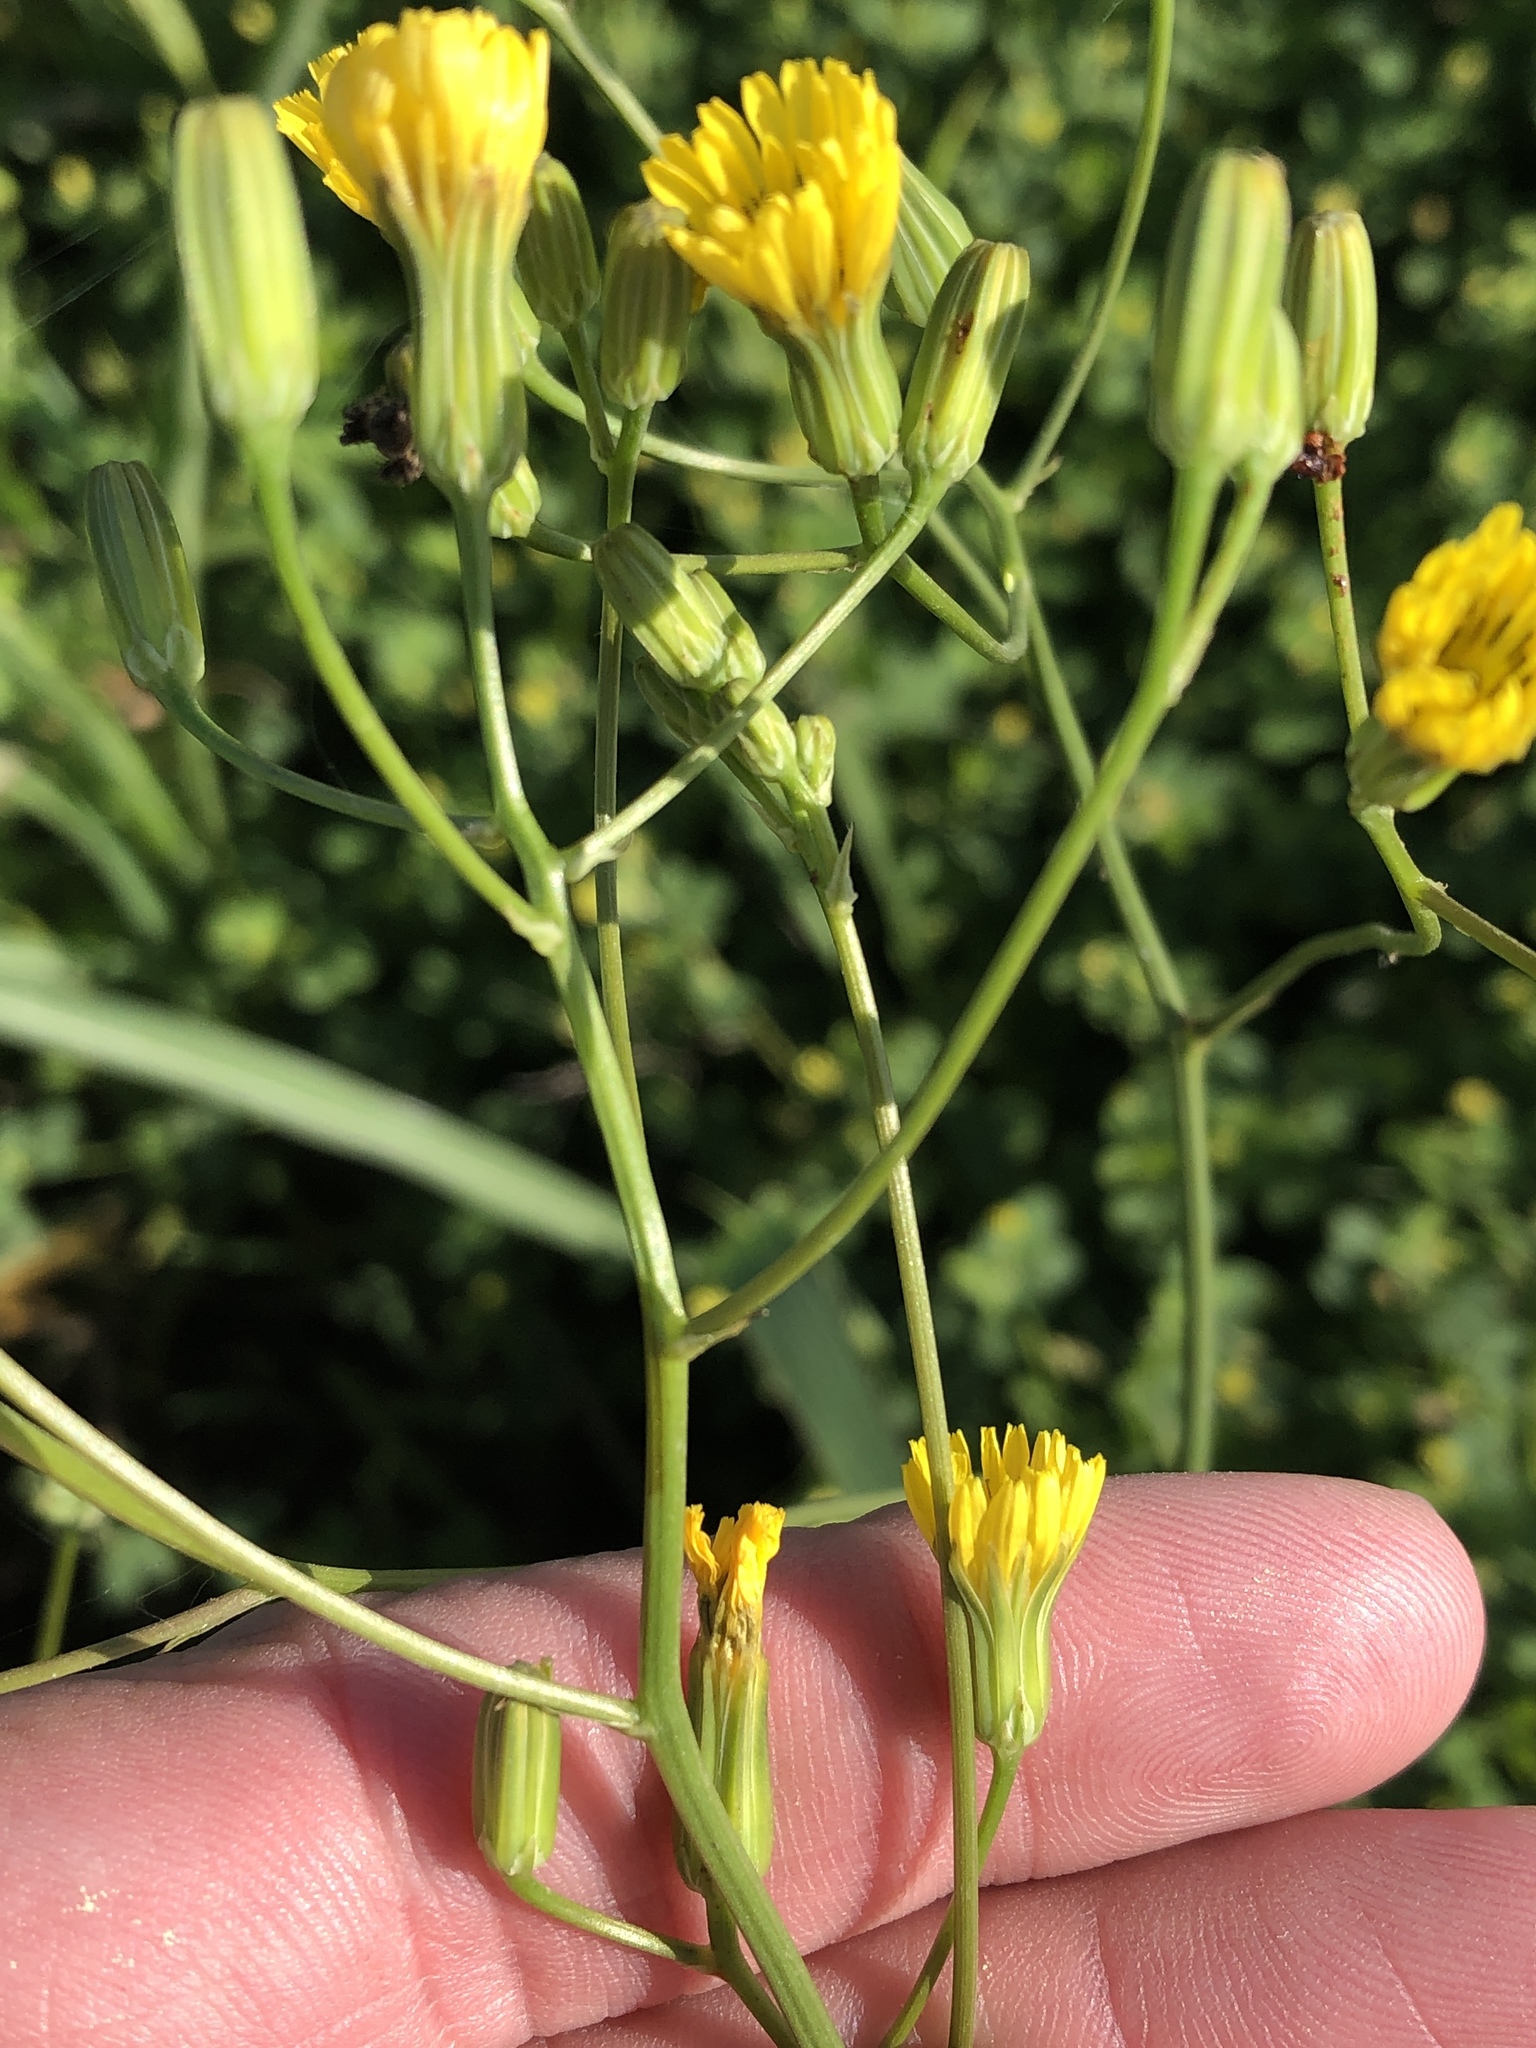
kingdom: Plantae
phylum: Tracheophyta
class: Magnoliopsida
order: Asterales
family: Asteraceae
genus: Crepis
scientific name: Crepis pulchra
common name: Hawk's-beard
